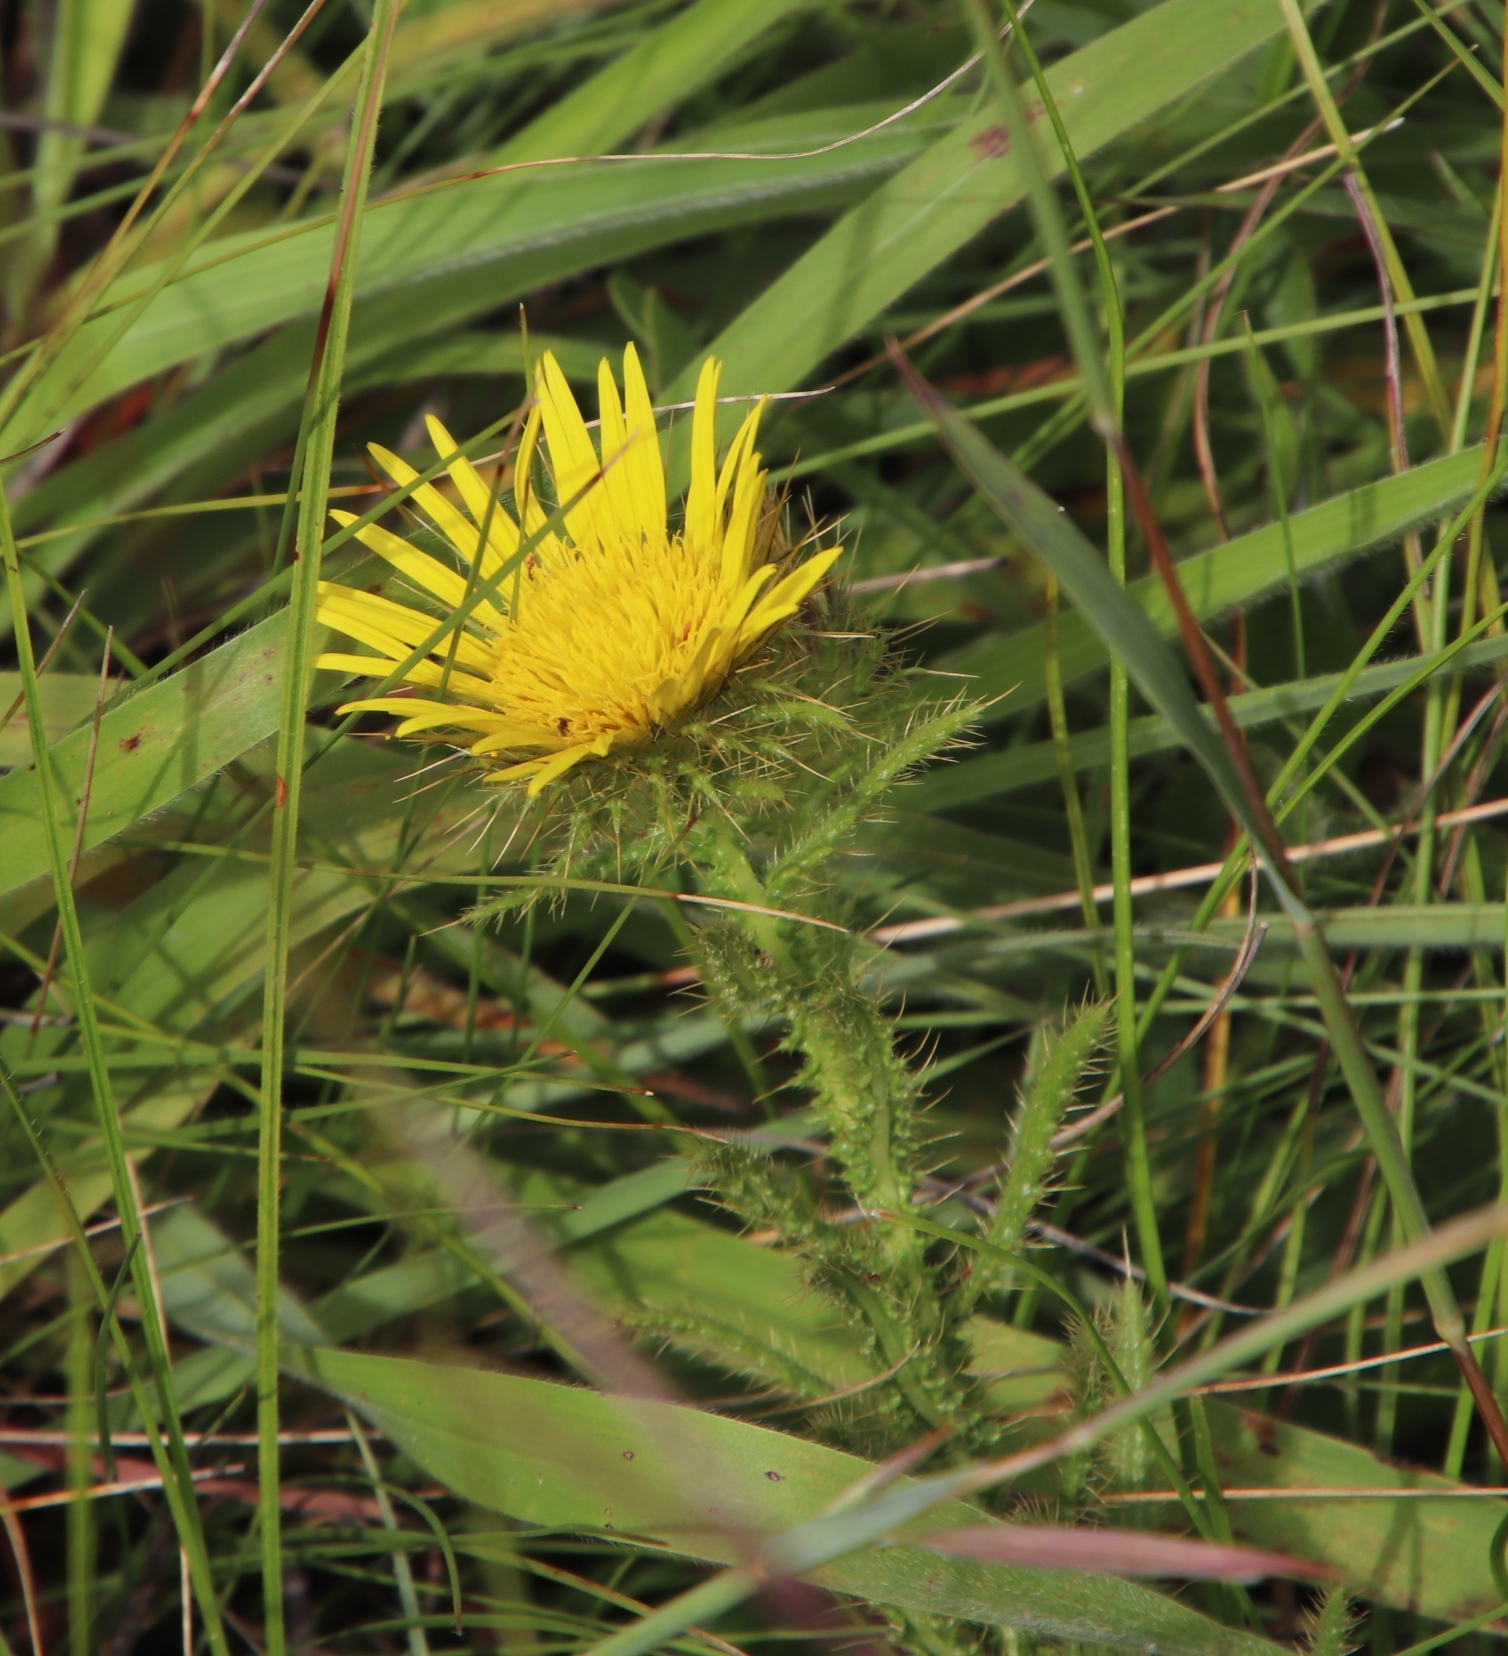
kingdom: Plantae
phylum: Tracheophyta
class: Magnoliopsida
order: Asterales
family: Asteraceae
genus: Berkheya
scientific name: Berkheya echinacea
